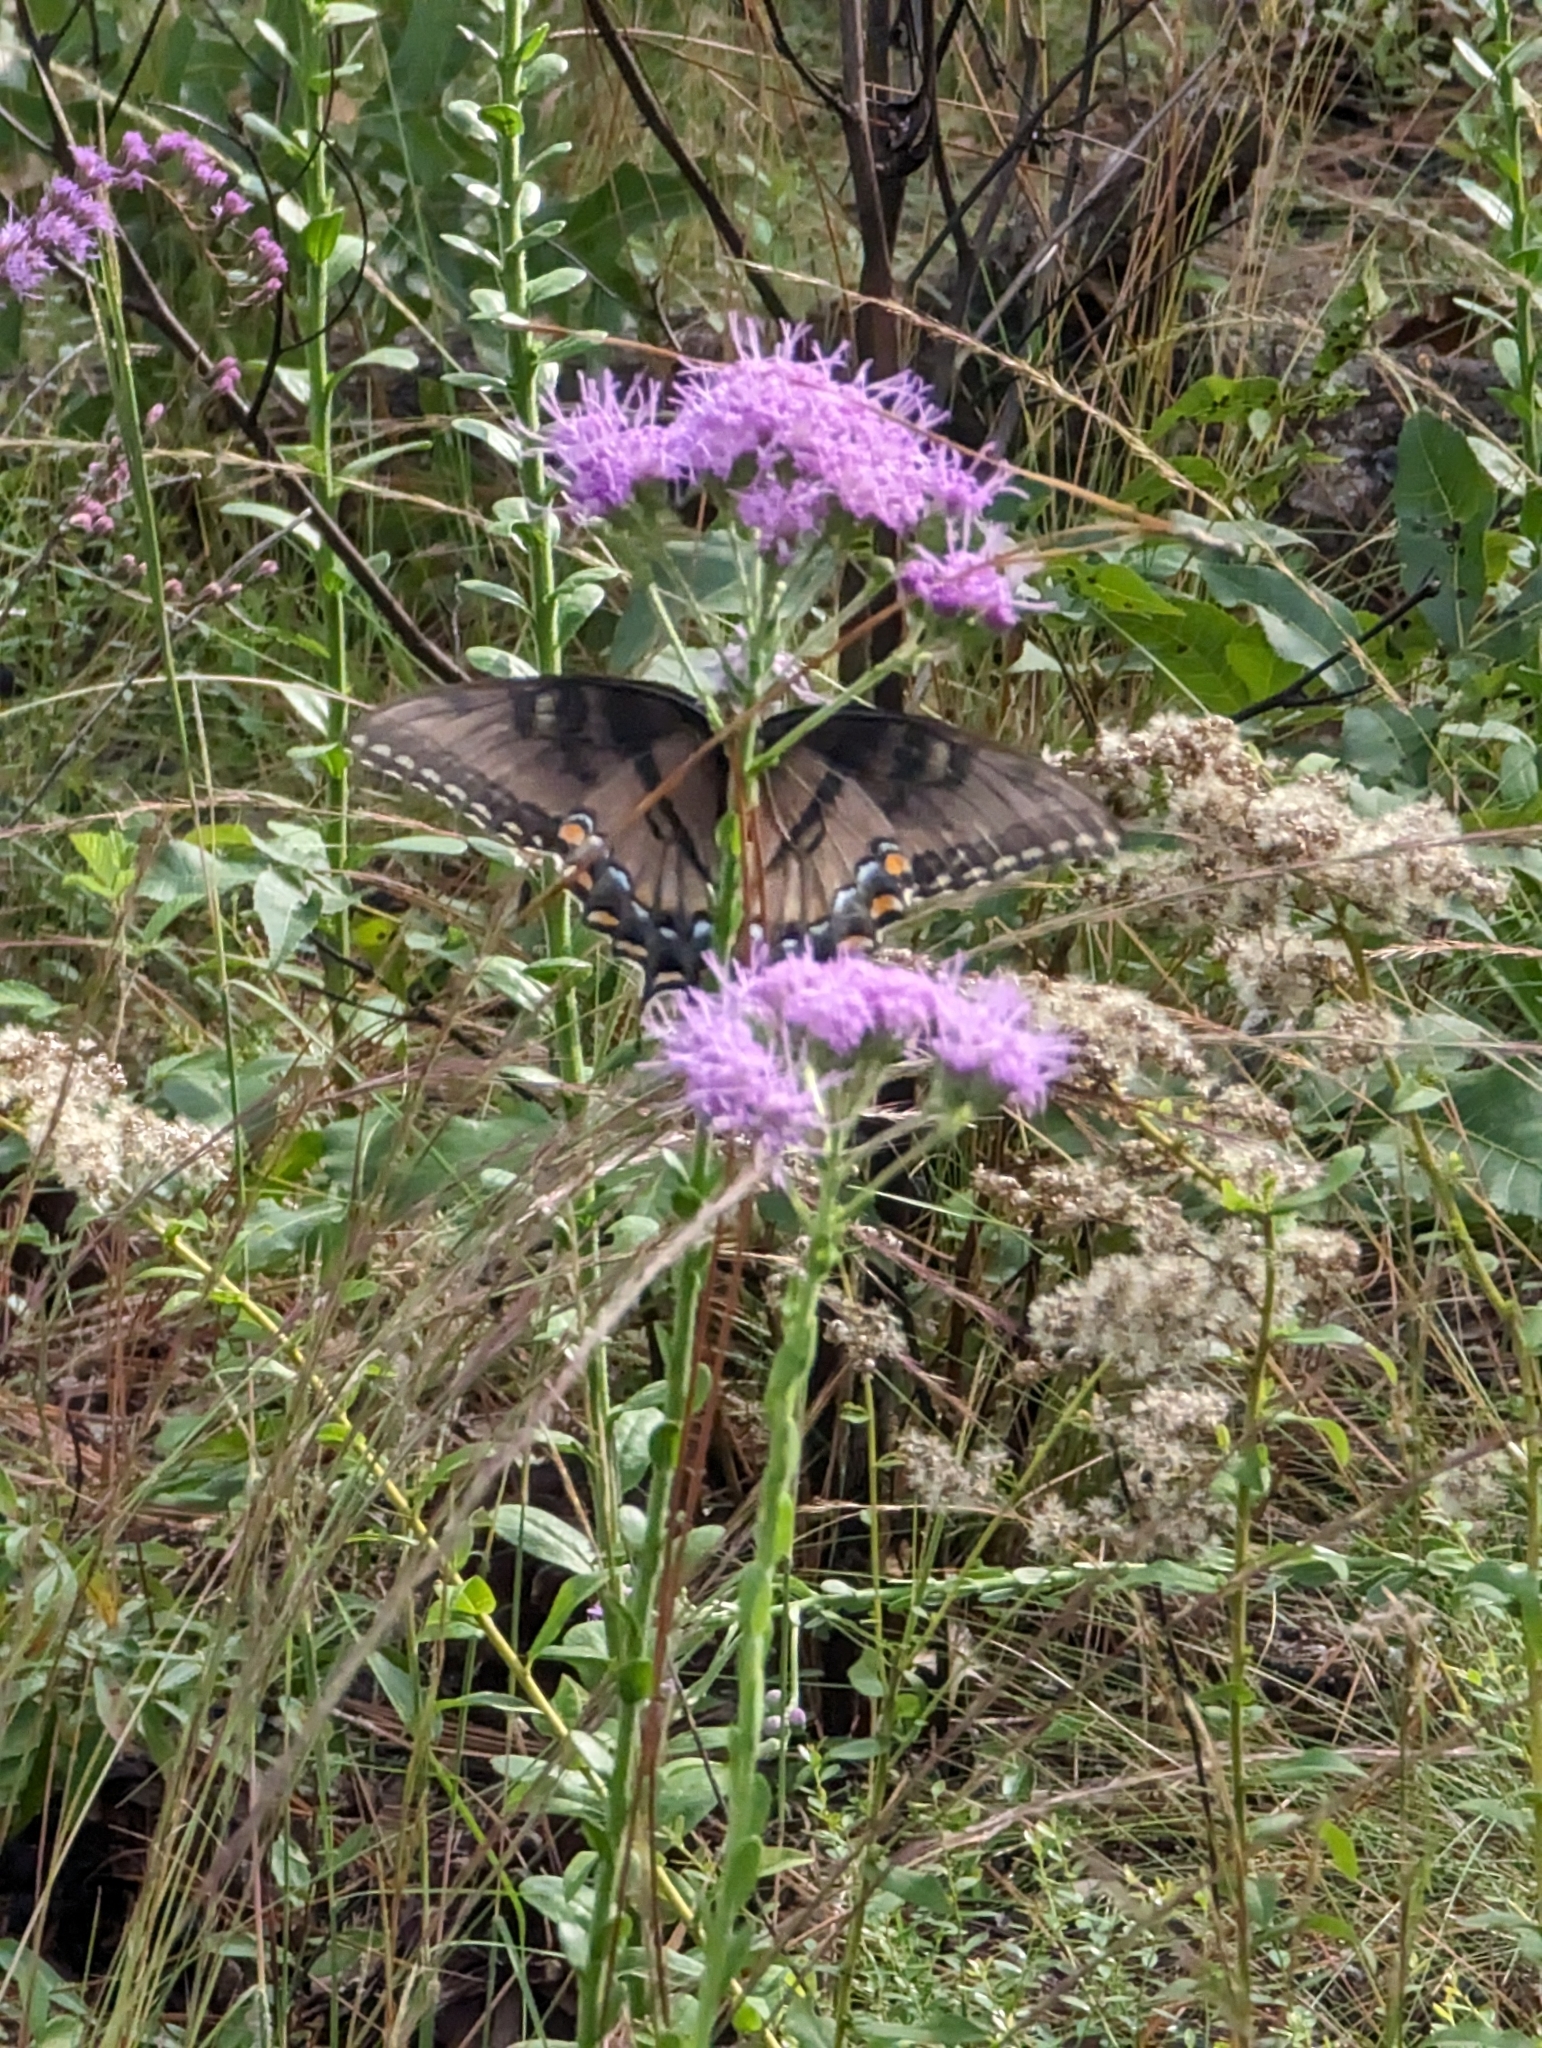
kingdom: Animalia
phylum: Arthropoda
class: Insecta
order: Lepidoptera
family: Papilionidae
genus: Papilio
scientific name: Papilio glaucus
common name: Tiger swallowtail
